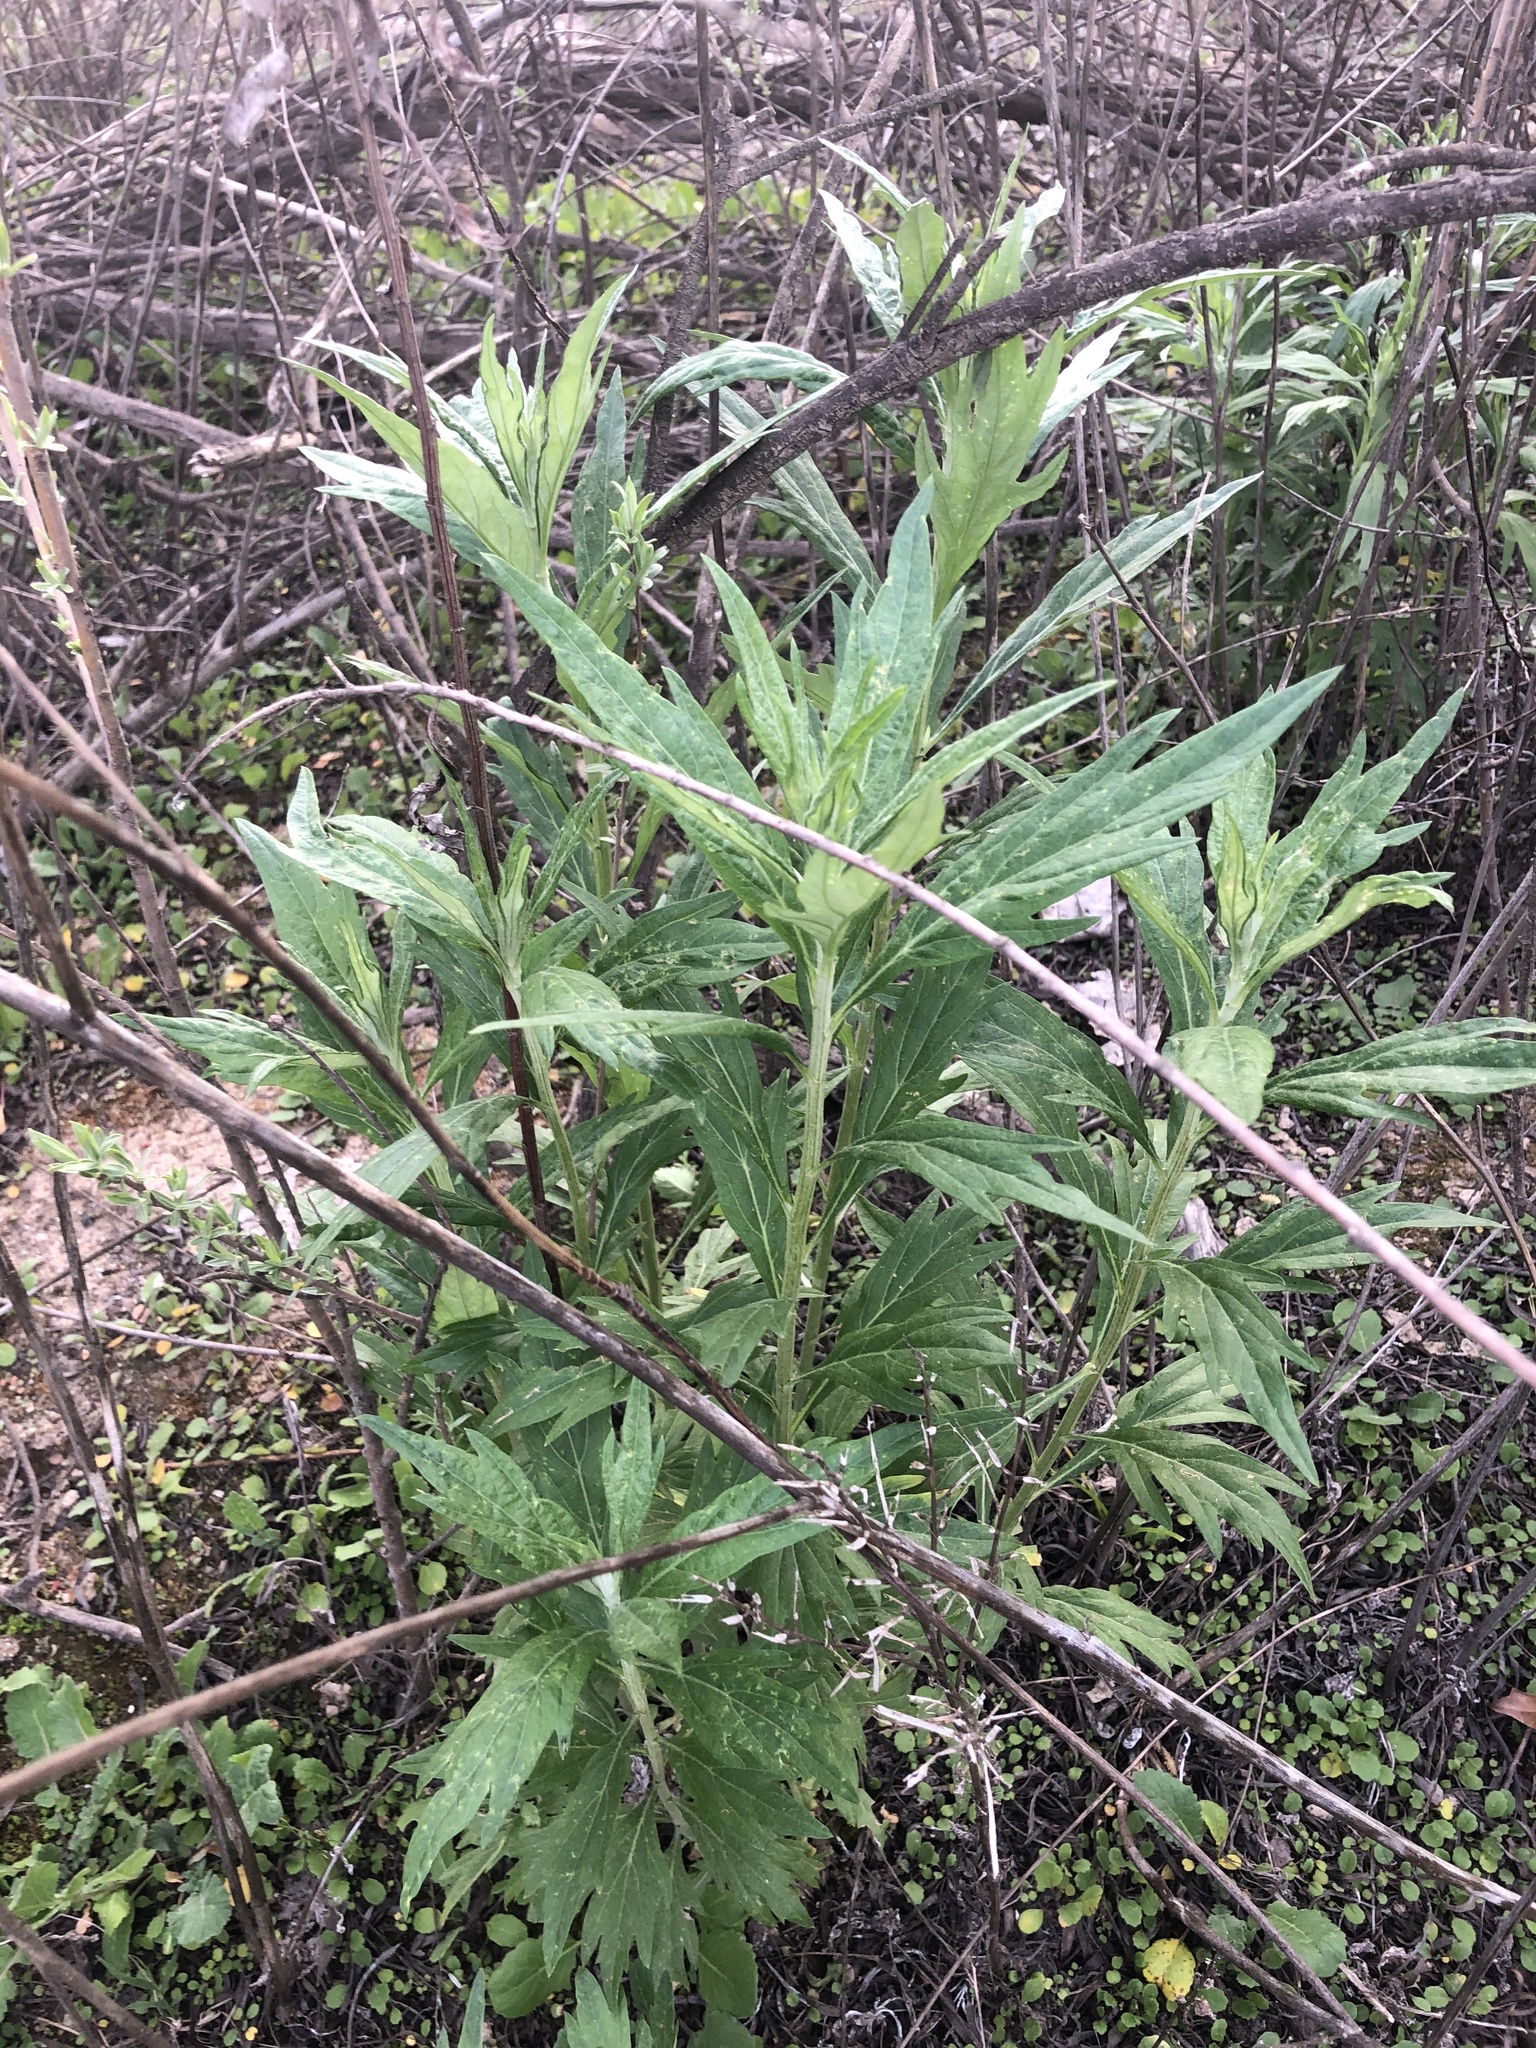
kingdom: Plantae
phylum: Tracheophyta
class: Magnoliopsida
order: Asterales
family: Asteraceae
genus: Artemisia
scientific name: Artemisia douglasiana
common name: Northwest mugwort
